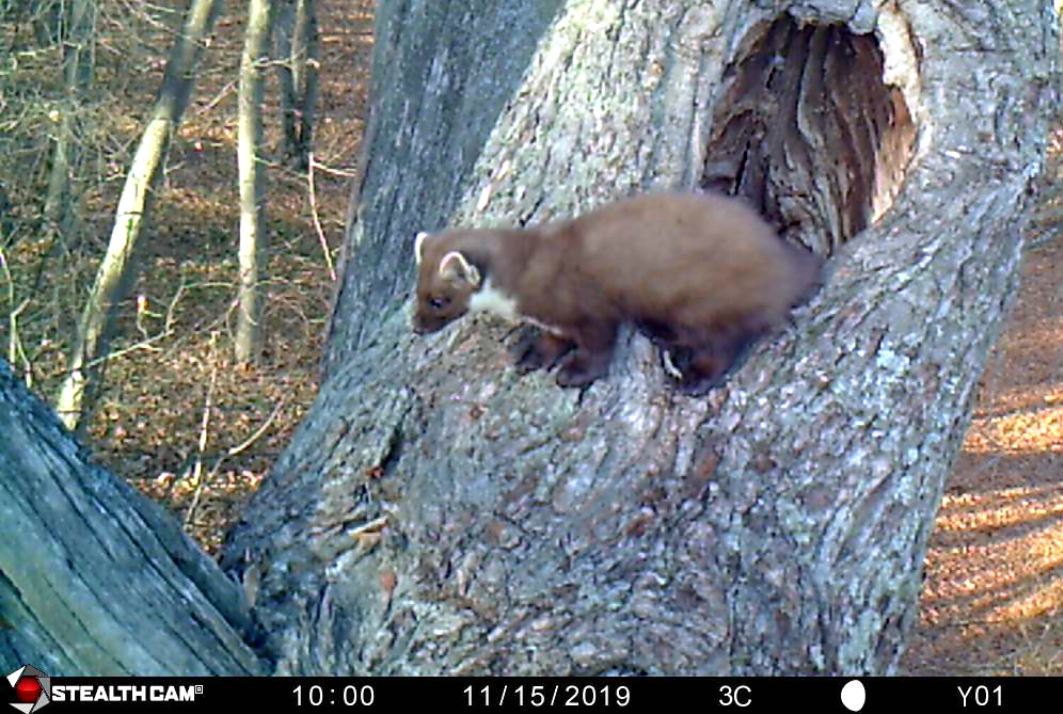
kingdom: Animalia
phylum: Chordata
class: Mammalia
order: Carnivora
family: Mustelidae
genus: Martes
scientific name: Martes martes
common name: European pine marten
